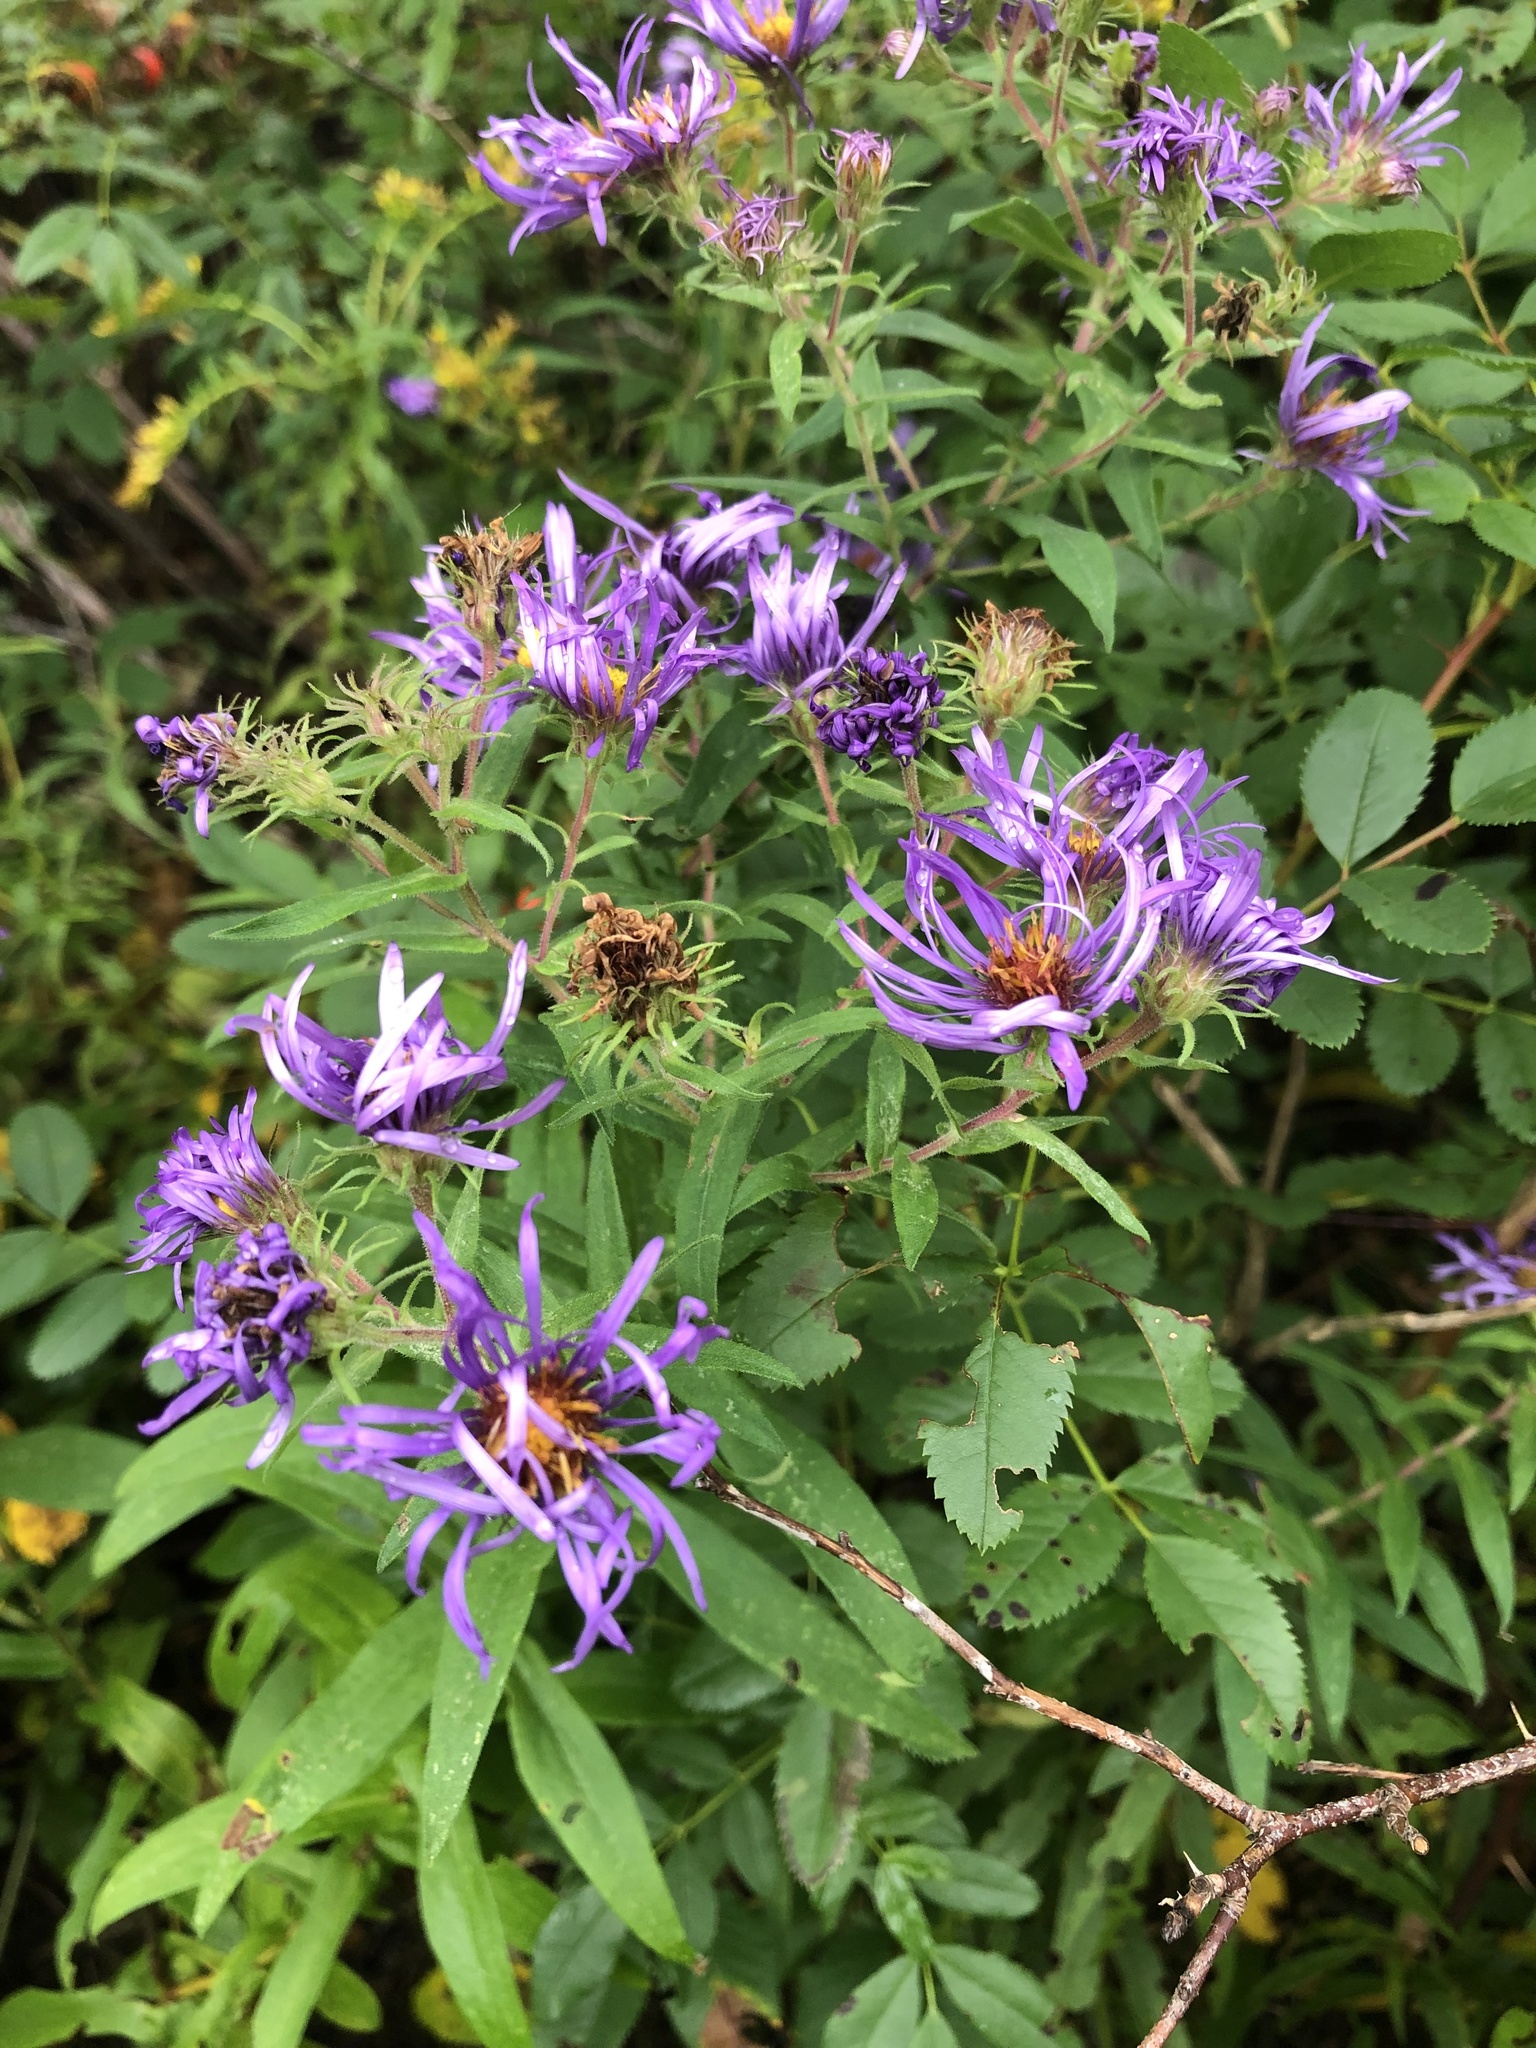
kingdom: Plantae
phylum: Tracheophyta
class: Magnoliopsida
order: Asterales
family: Asteraceae
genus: Symphyotrichum
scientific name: Symphyotrichum novae-angliae
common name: Michaelmas daisy
